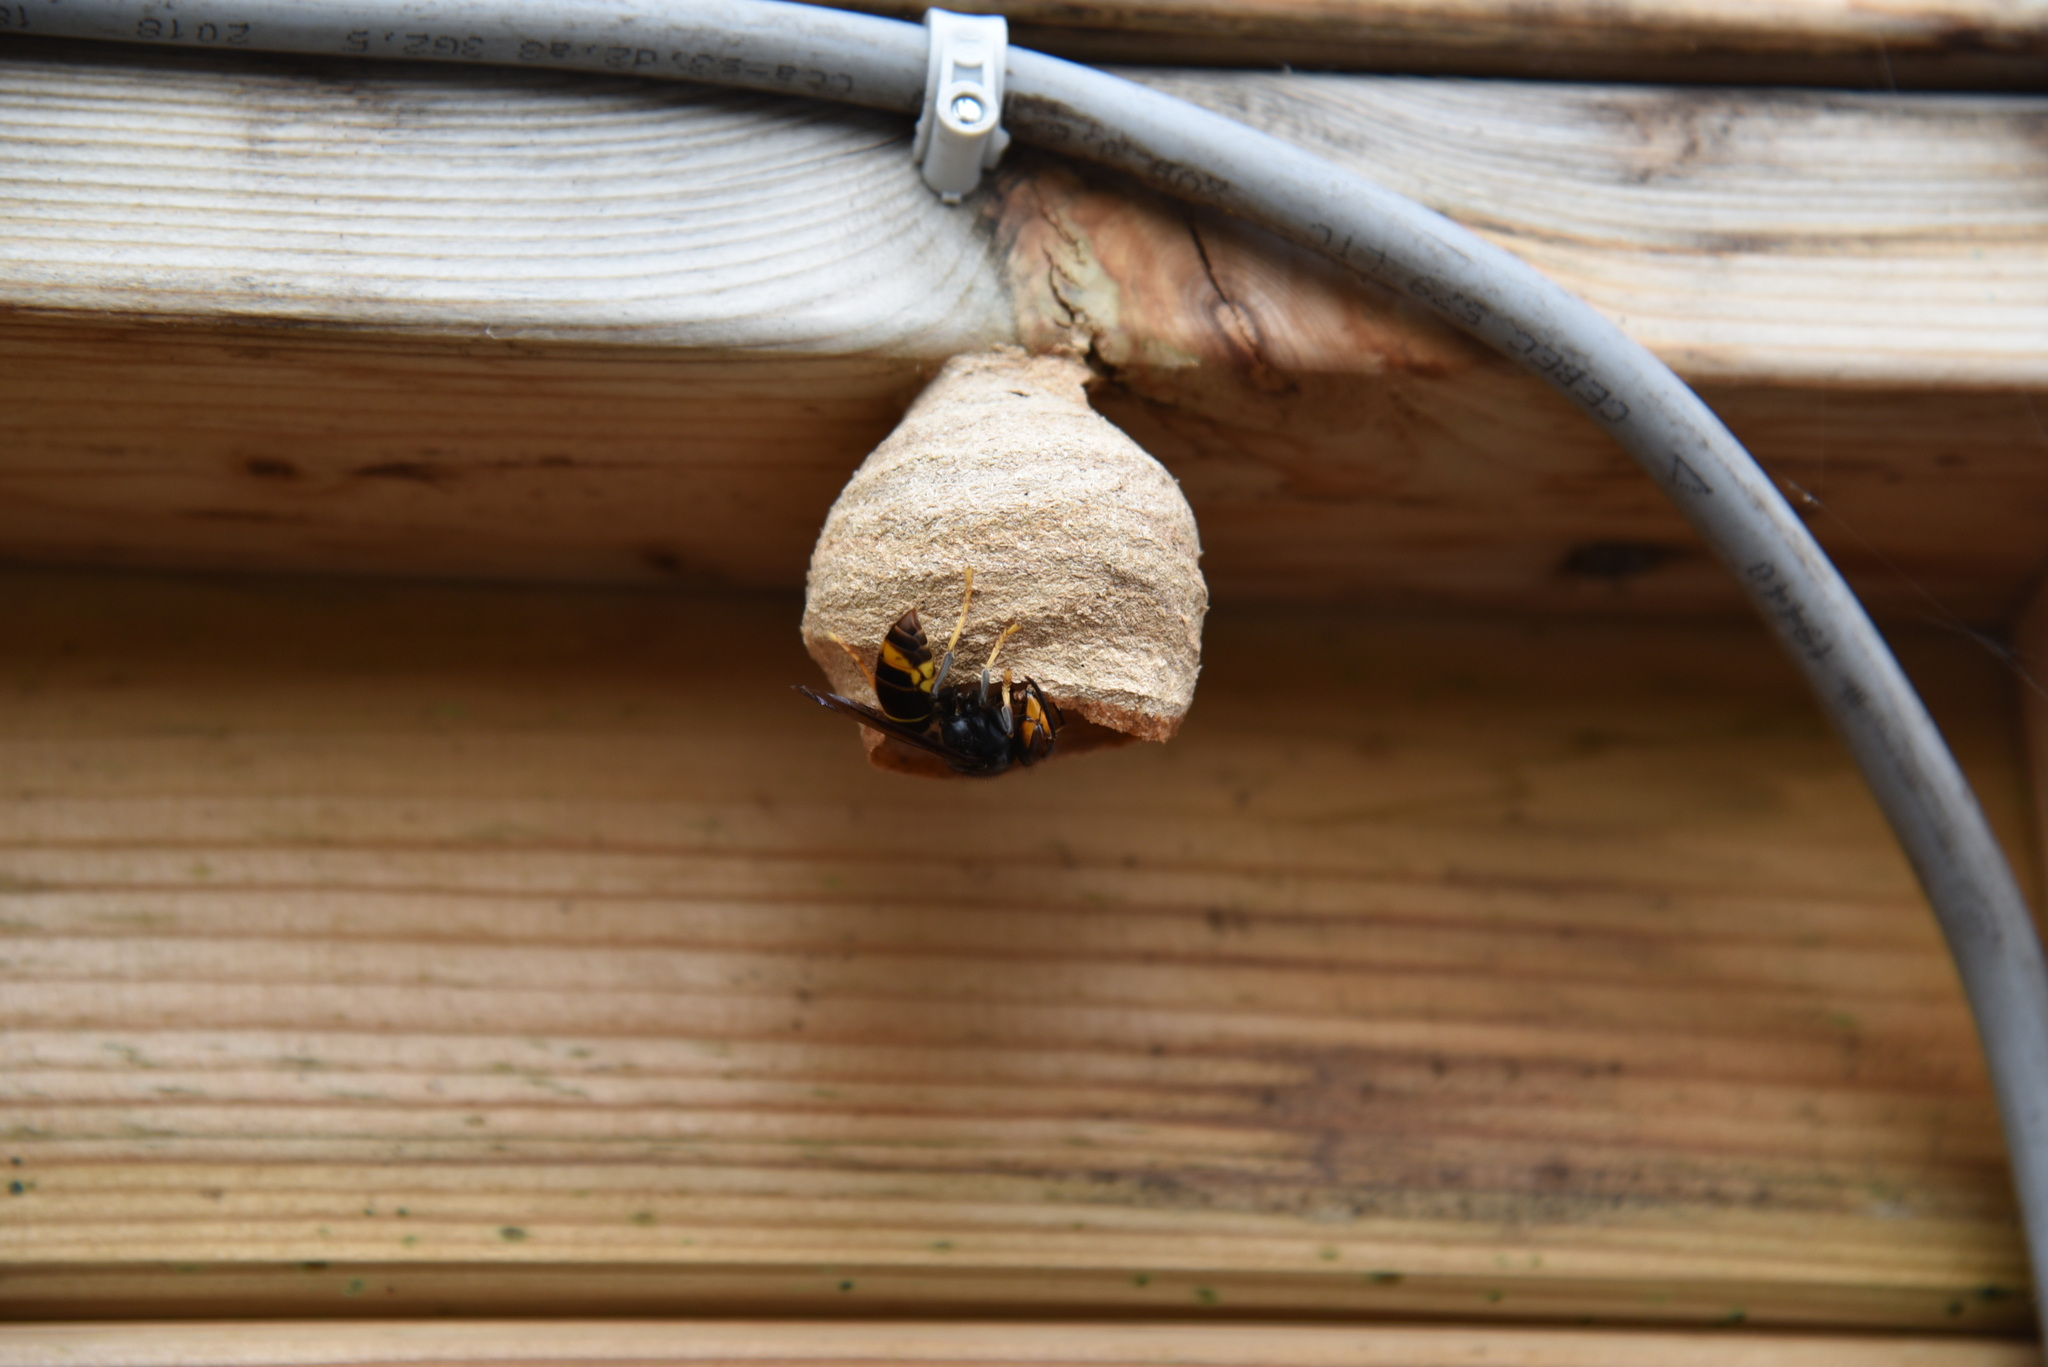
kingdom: Animalia
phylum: Arthropoda
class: Insecta
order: Hymenoptera
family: Vespidae
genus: Vespa
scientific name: Vespa velutina
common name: Asian hornet
